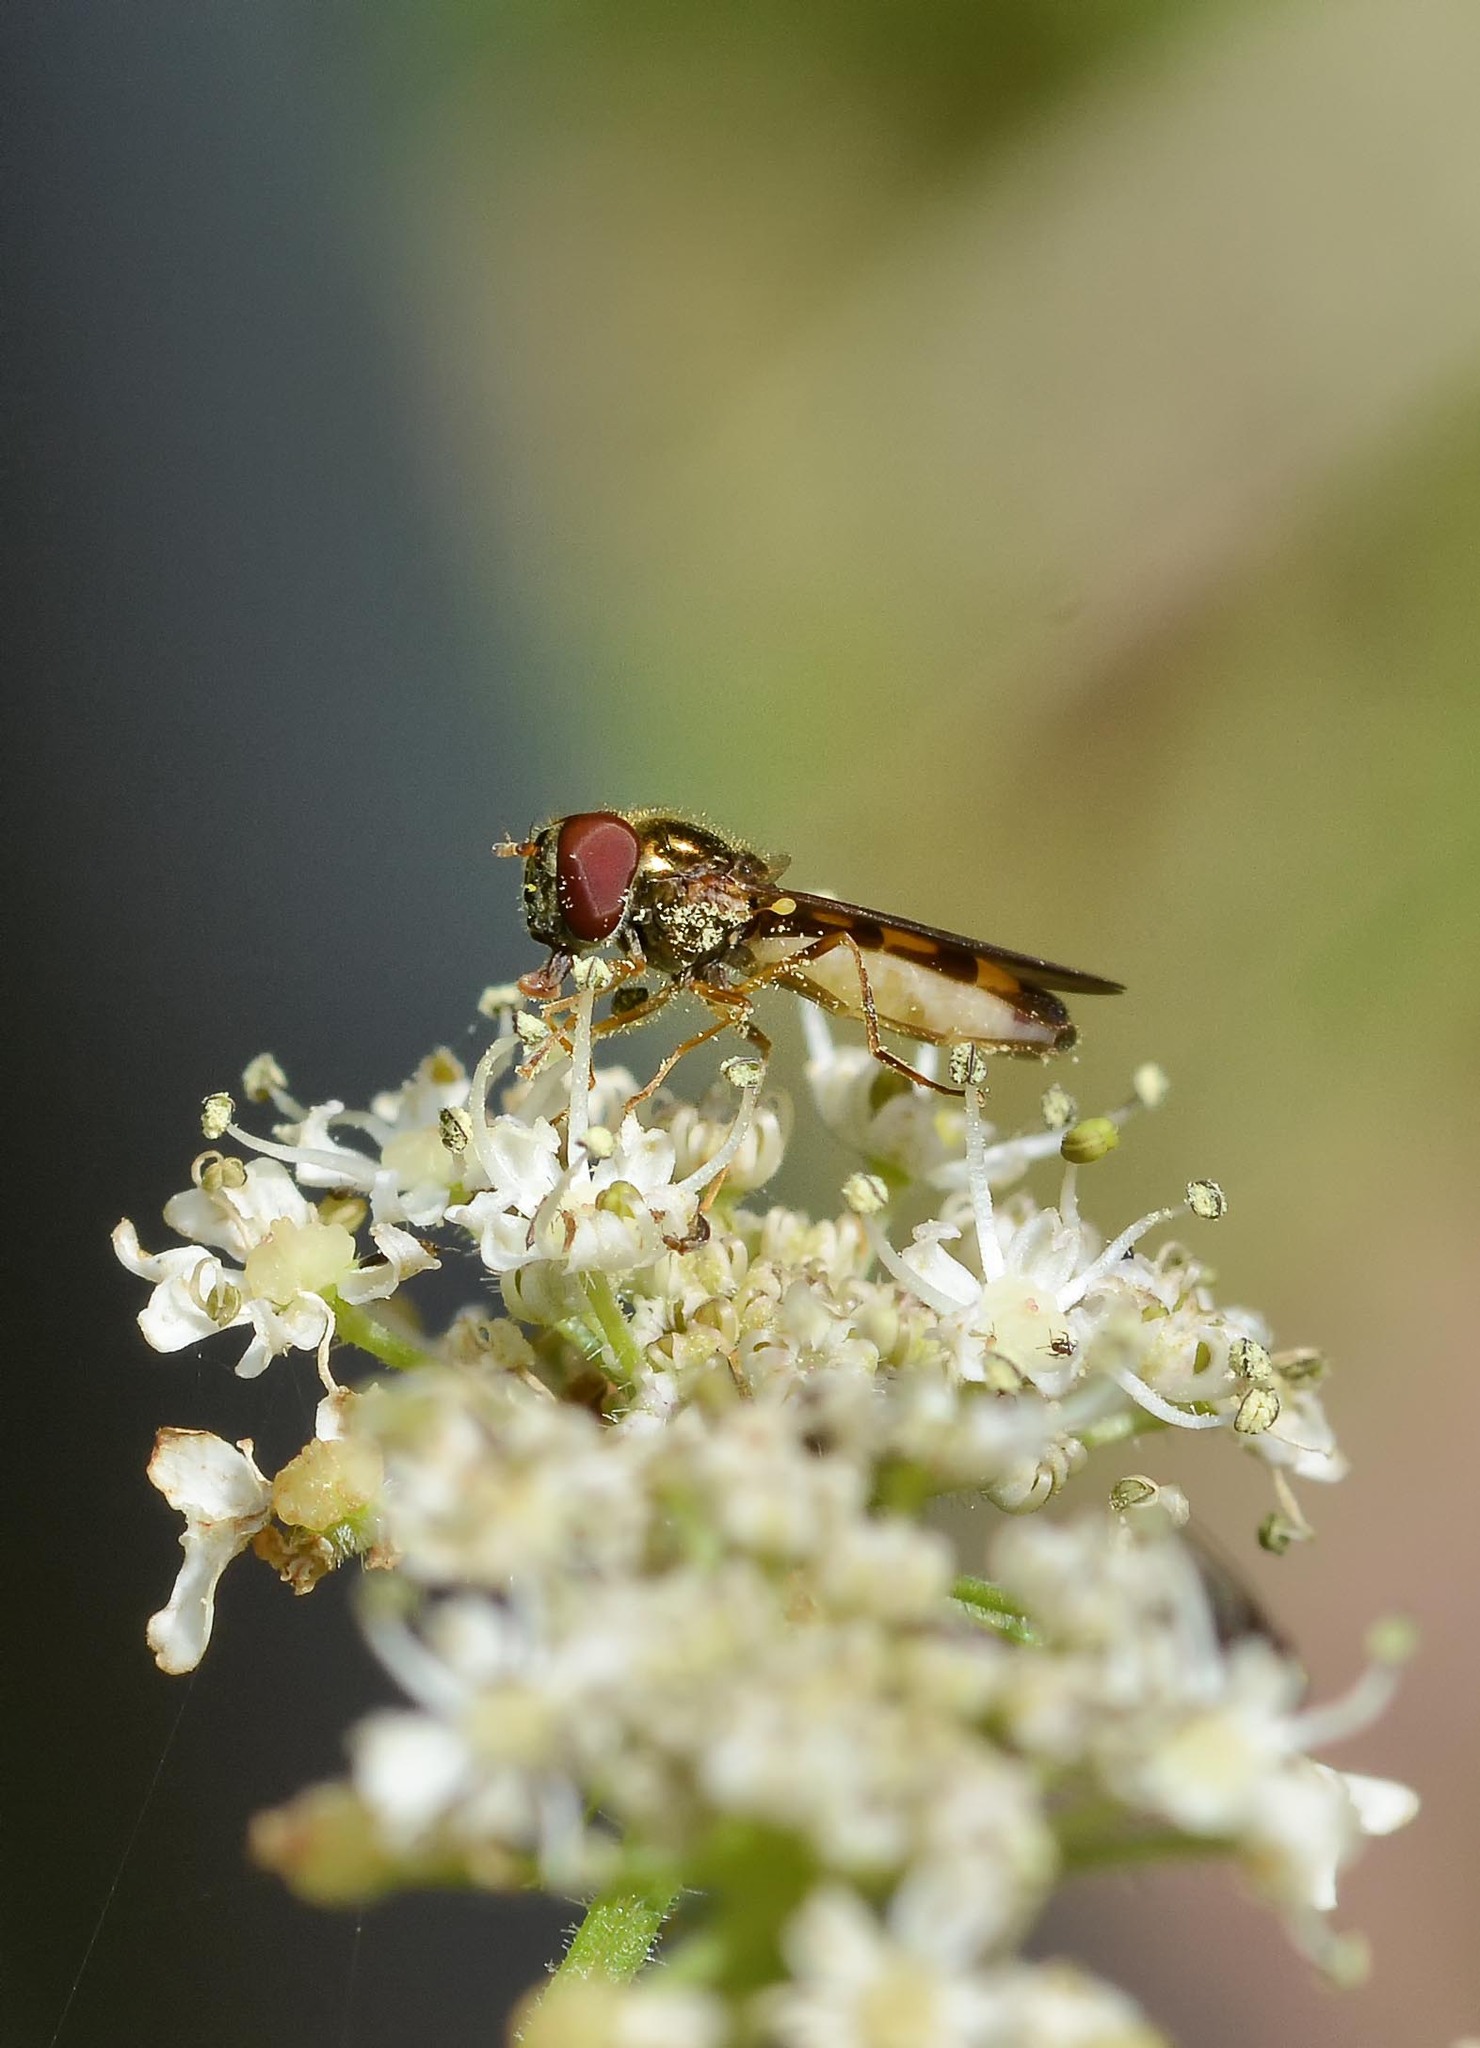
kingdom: Animalia
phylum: Arthropoda
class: Insecta
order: Diptera
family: Syrphidae
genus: Melanostoma
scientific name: Melanostoma scalare
